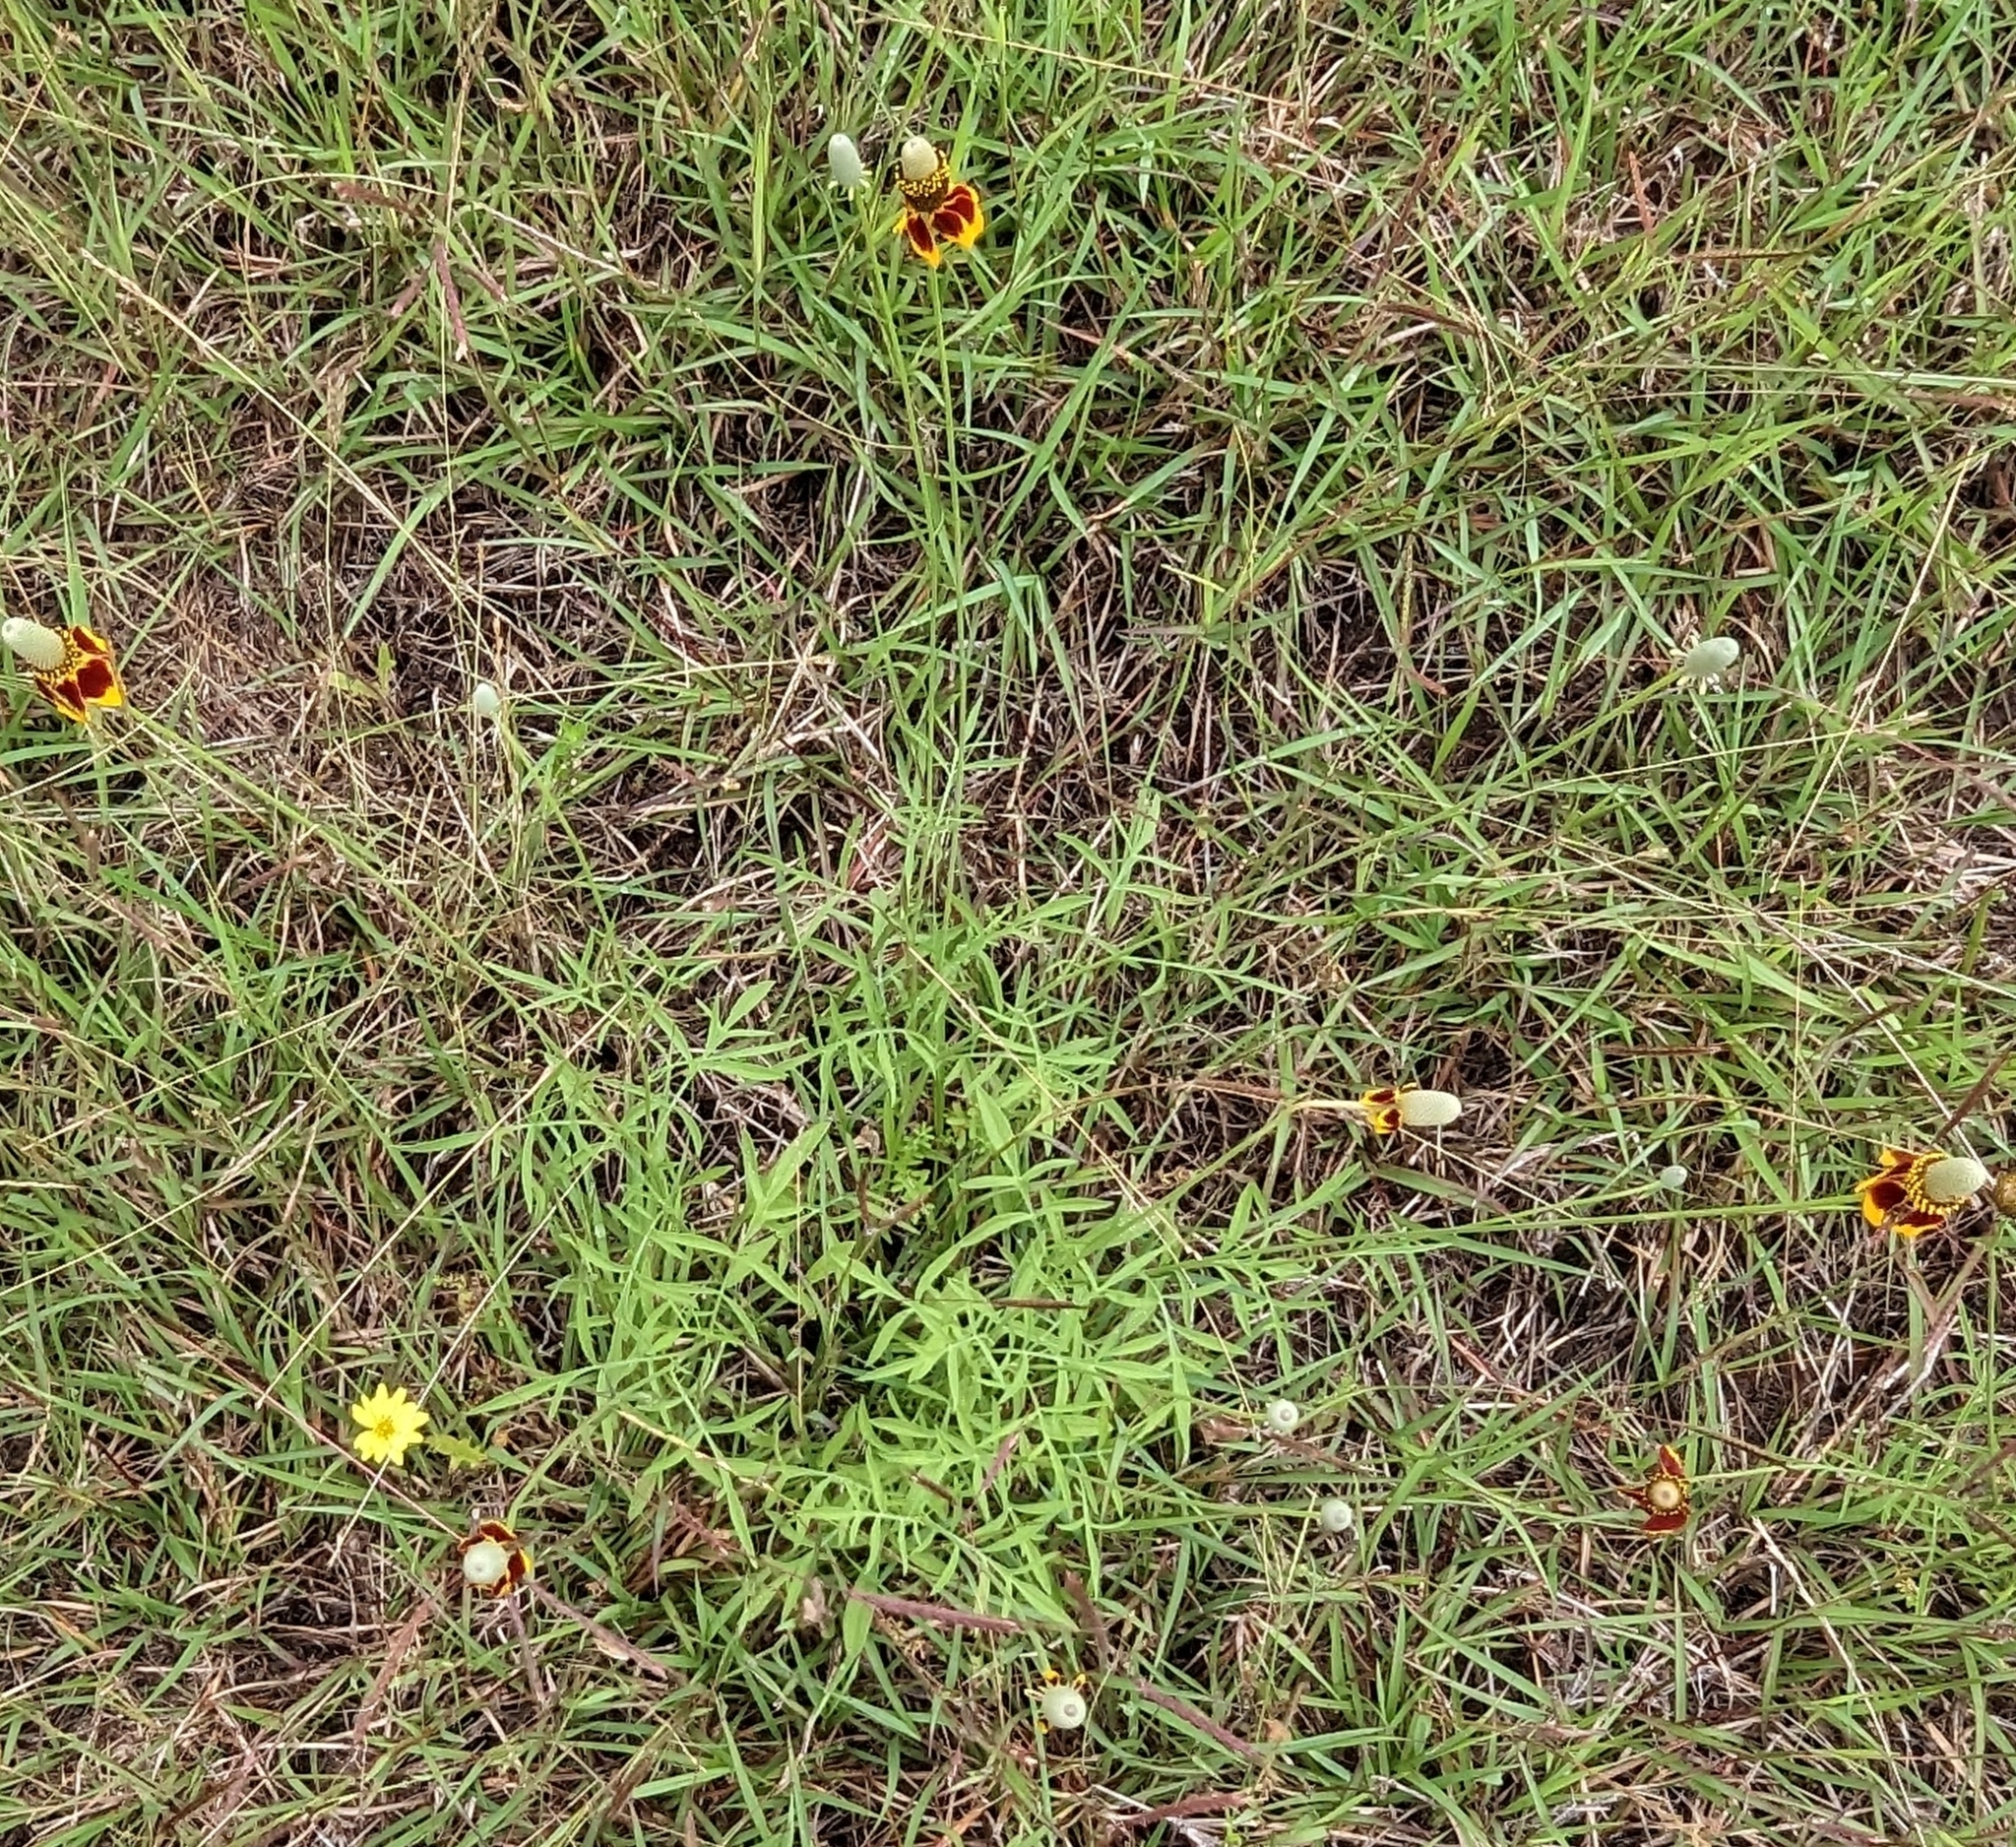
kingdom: Plantae
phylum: Tracheophyta
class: Magnoliopsida
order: Asterales
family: Asteraceae
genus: Ratibida
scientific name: Ratibida columnifera
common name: Prairie coneflower
